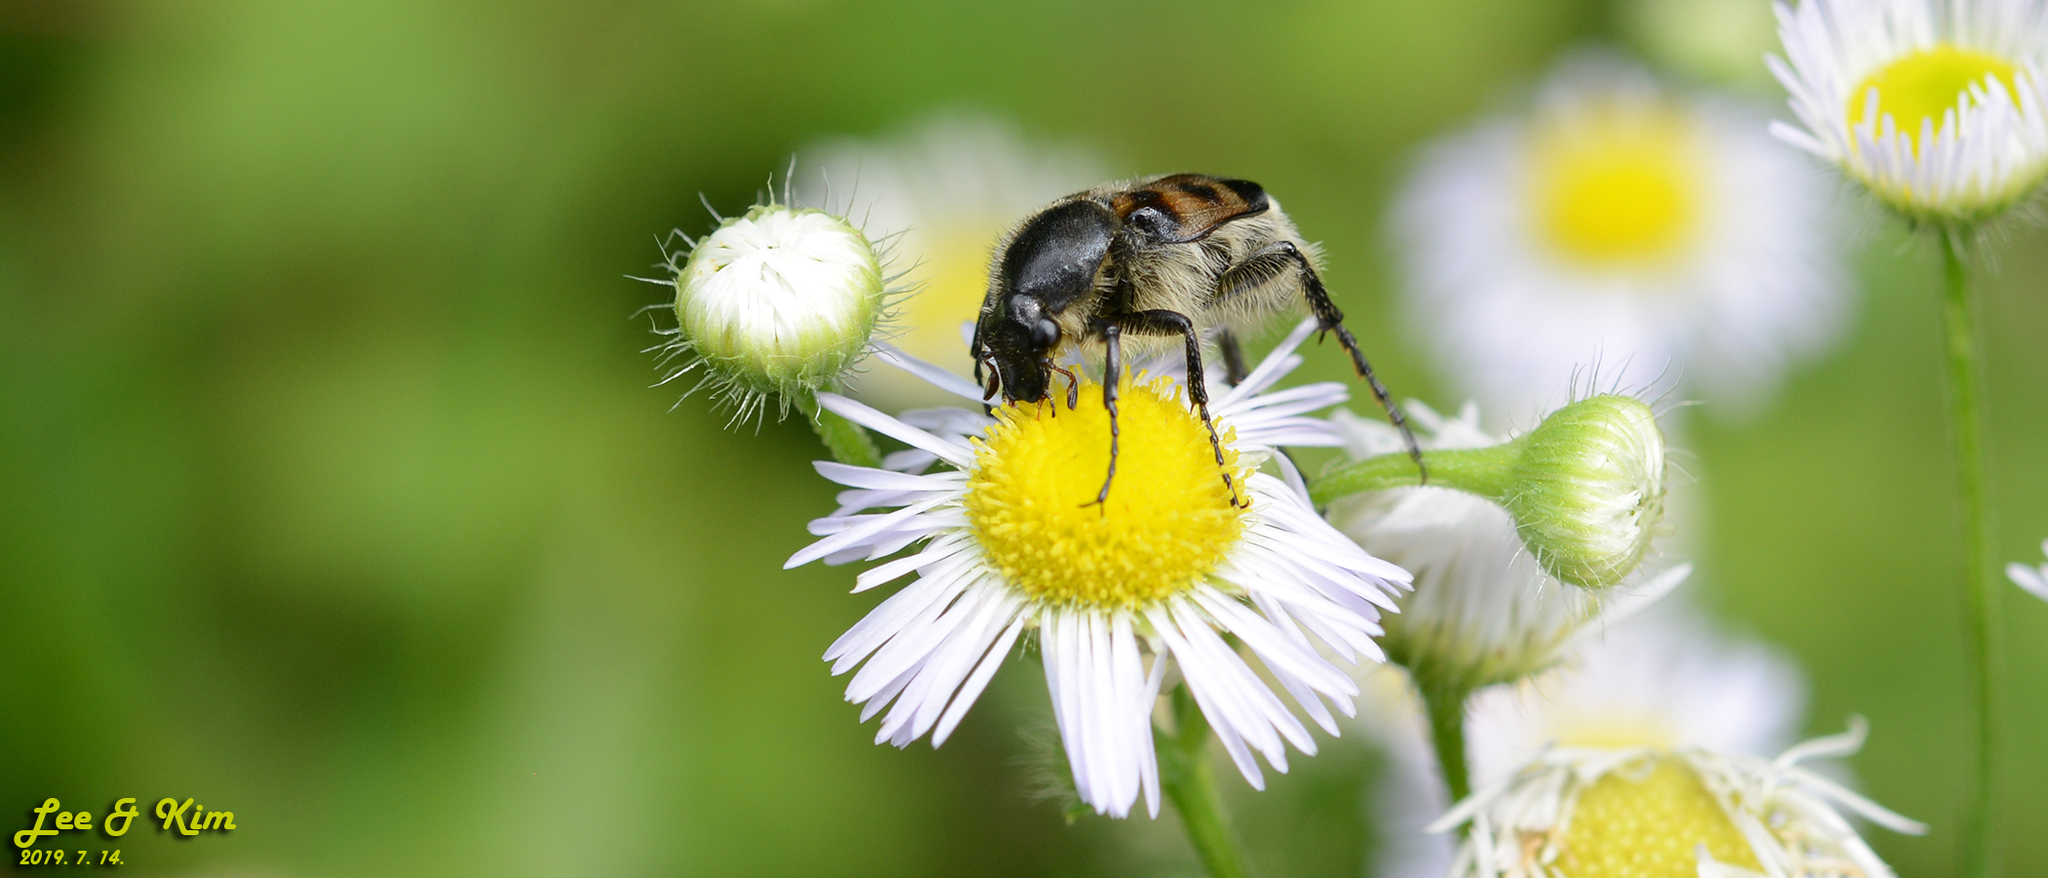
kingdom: Animalia
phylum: Arthropoda
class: Insecta
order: Coleoptera
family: Scarabaeidae
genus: Lasiotrichius
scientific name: Lasiotrichius succinctus
